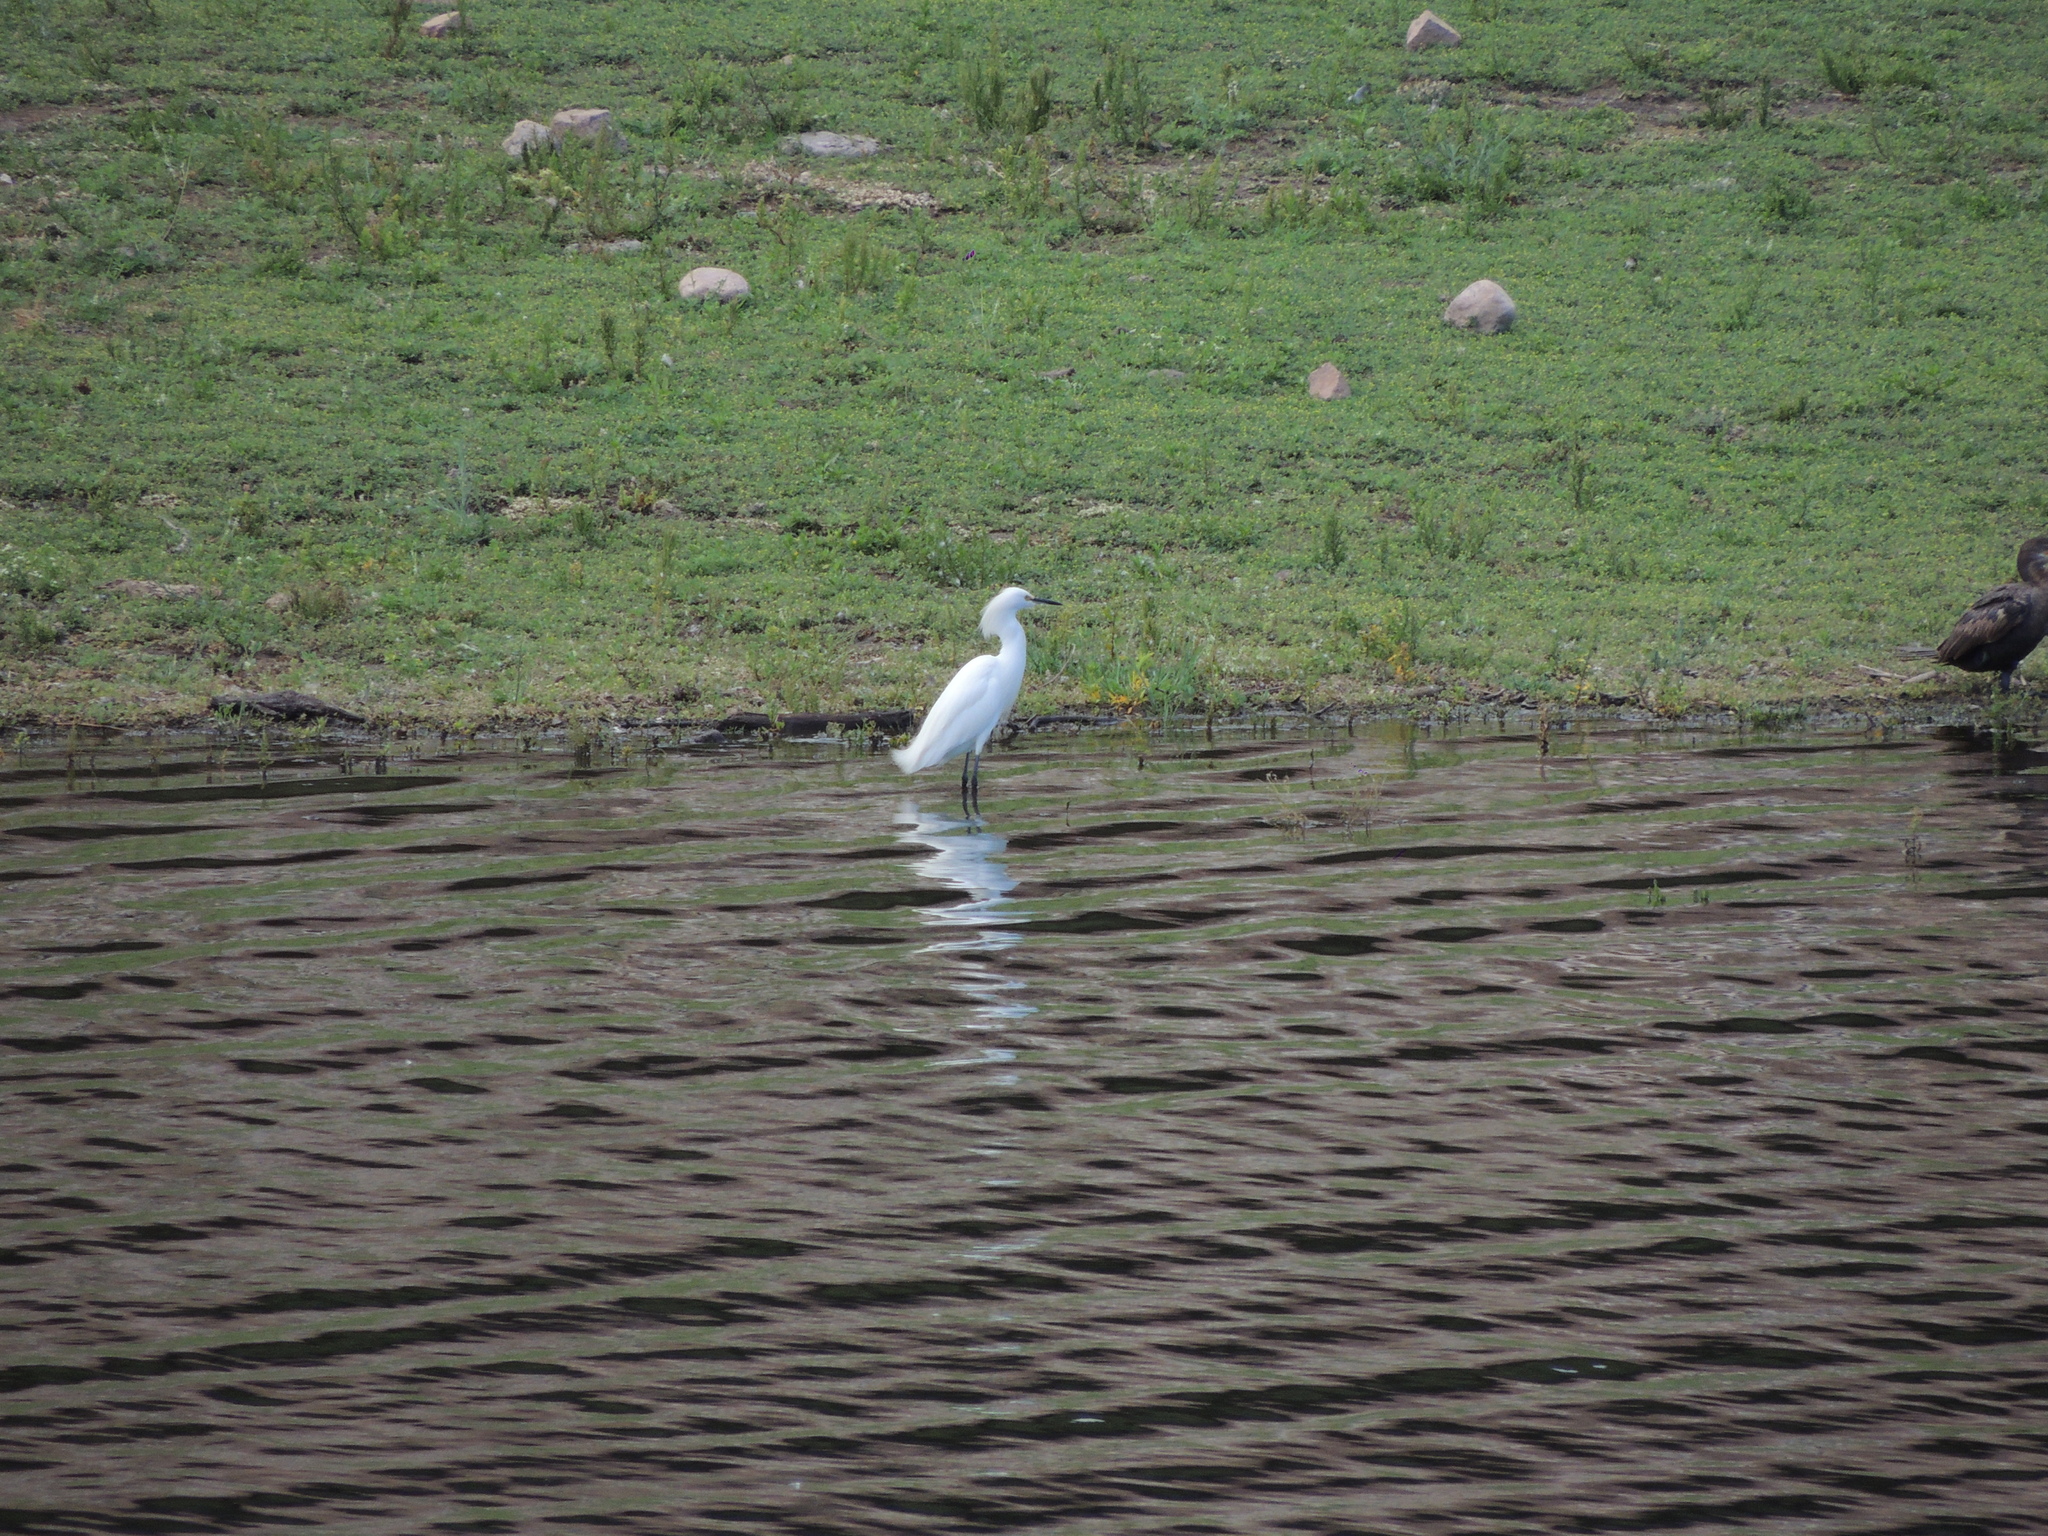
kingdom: Animalia
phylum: Chordata
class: Aves
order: Pelecaniformes
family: Ardeidae
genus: Egretta
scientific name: Egretta thula
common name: Snowy egret
